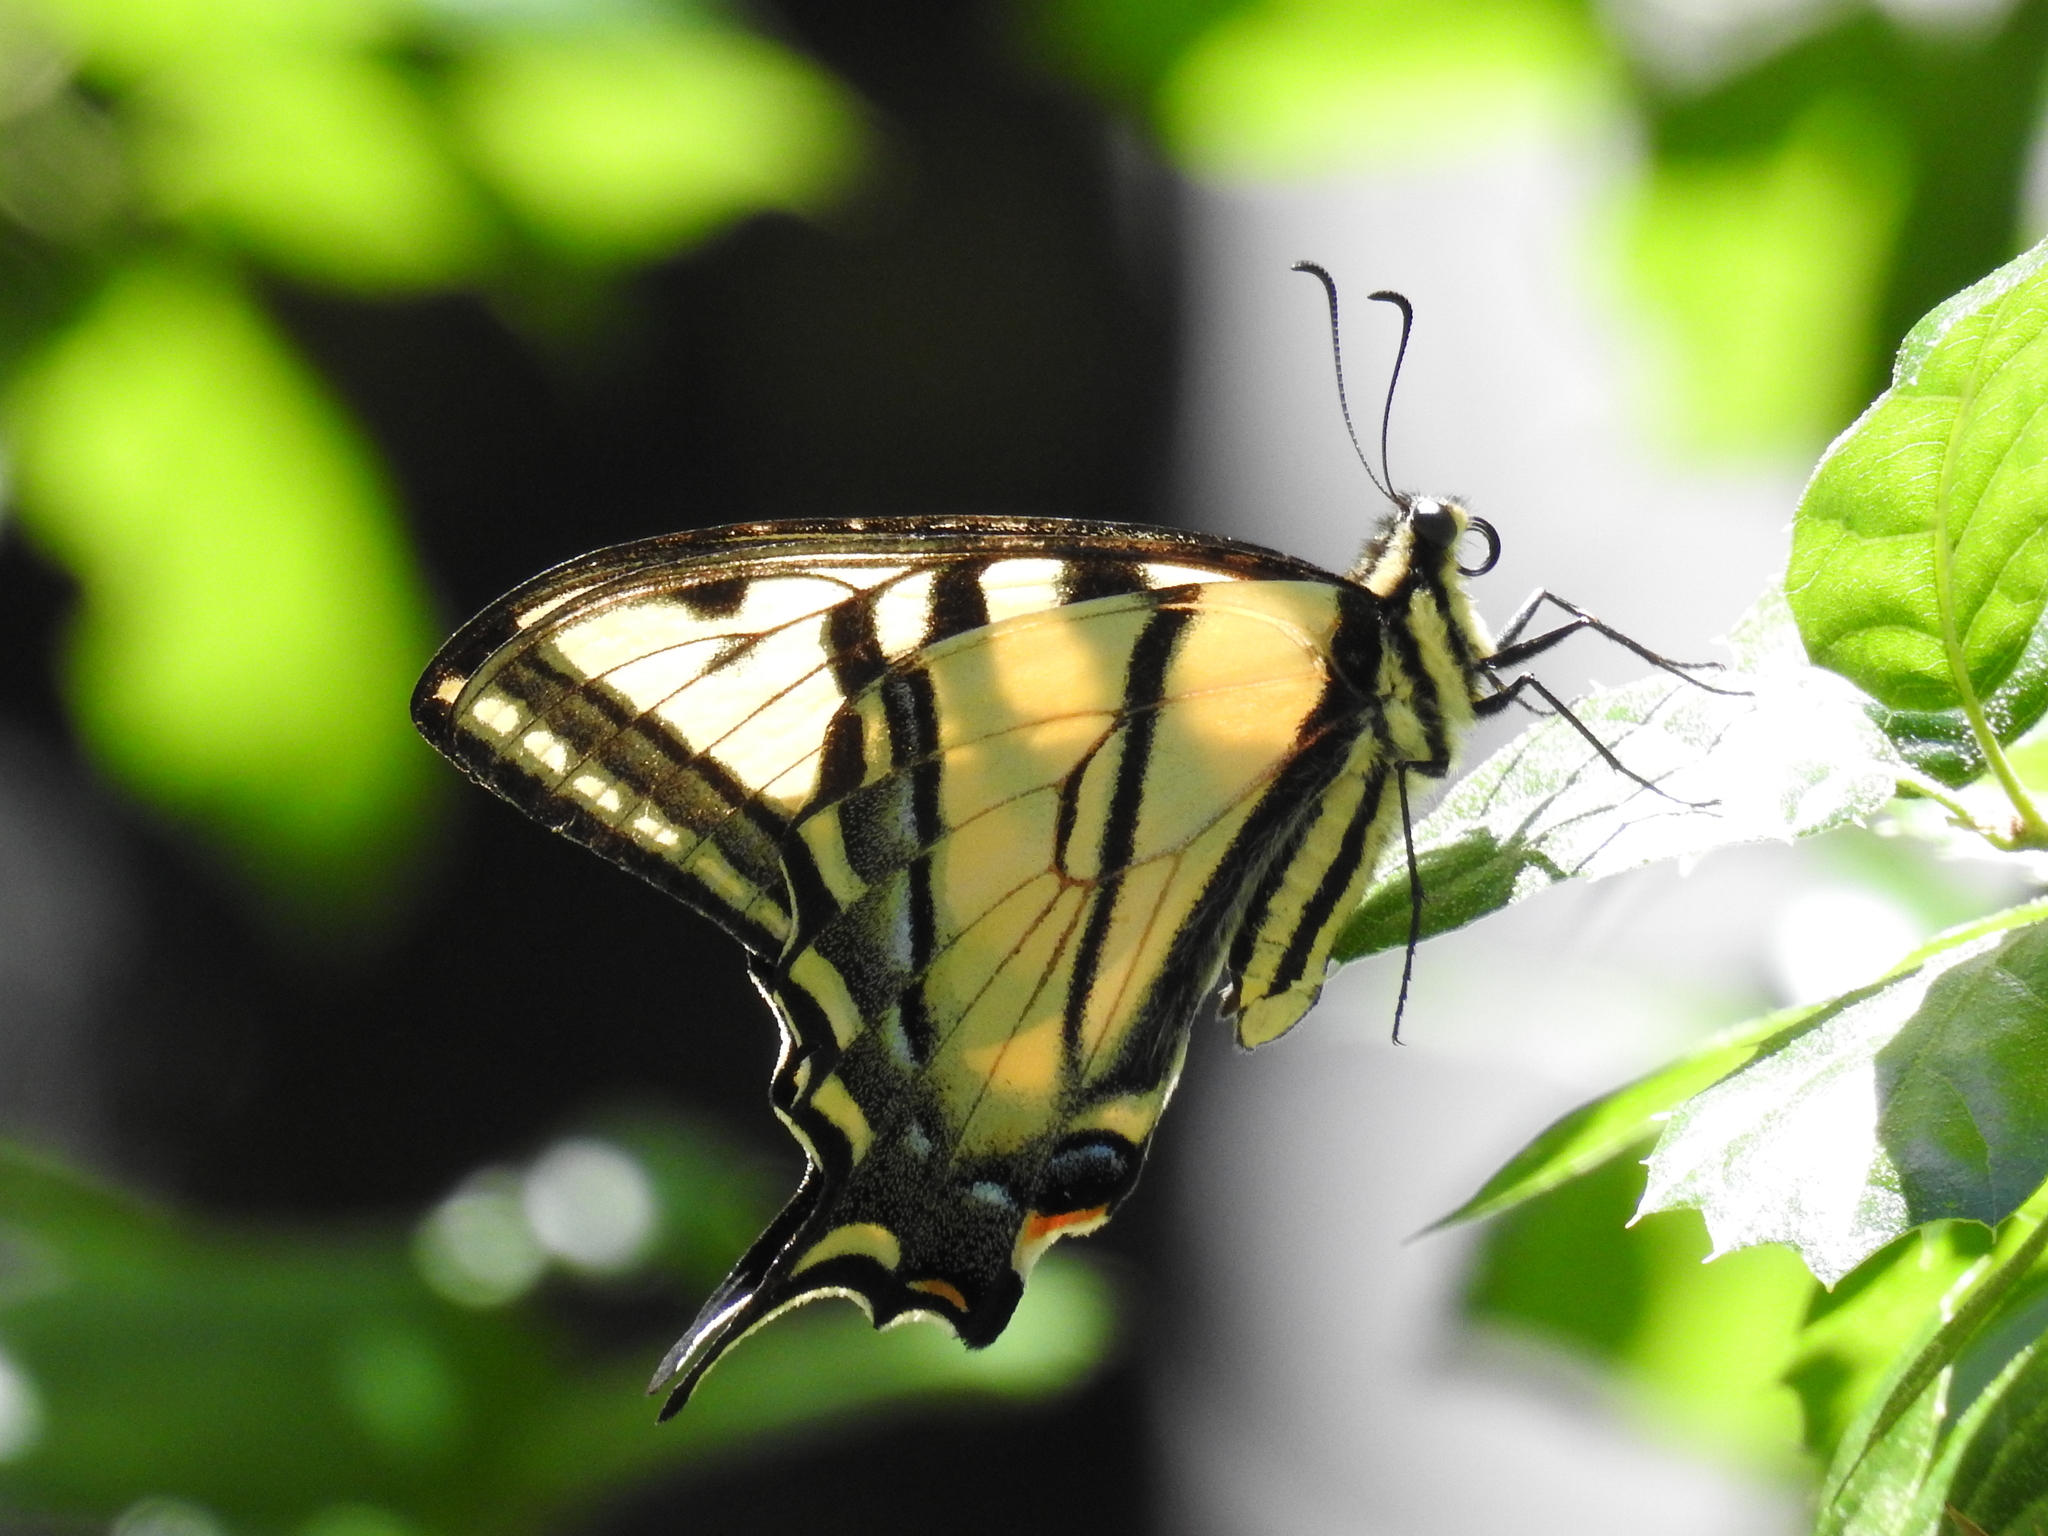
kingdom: Animalia
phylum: Arthropoda
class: Insecta
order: Lepidoptera
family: Papilionidae
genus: Papilio
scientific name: Papilio rutulus
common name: Western tiger swallowtail
